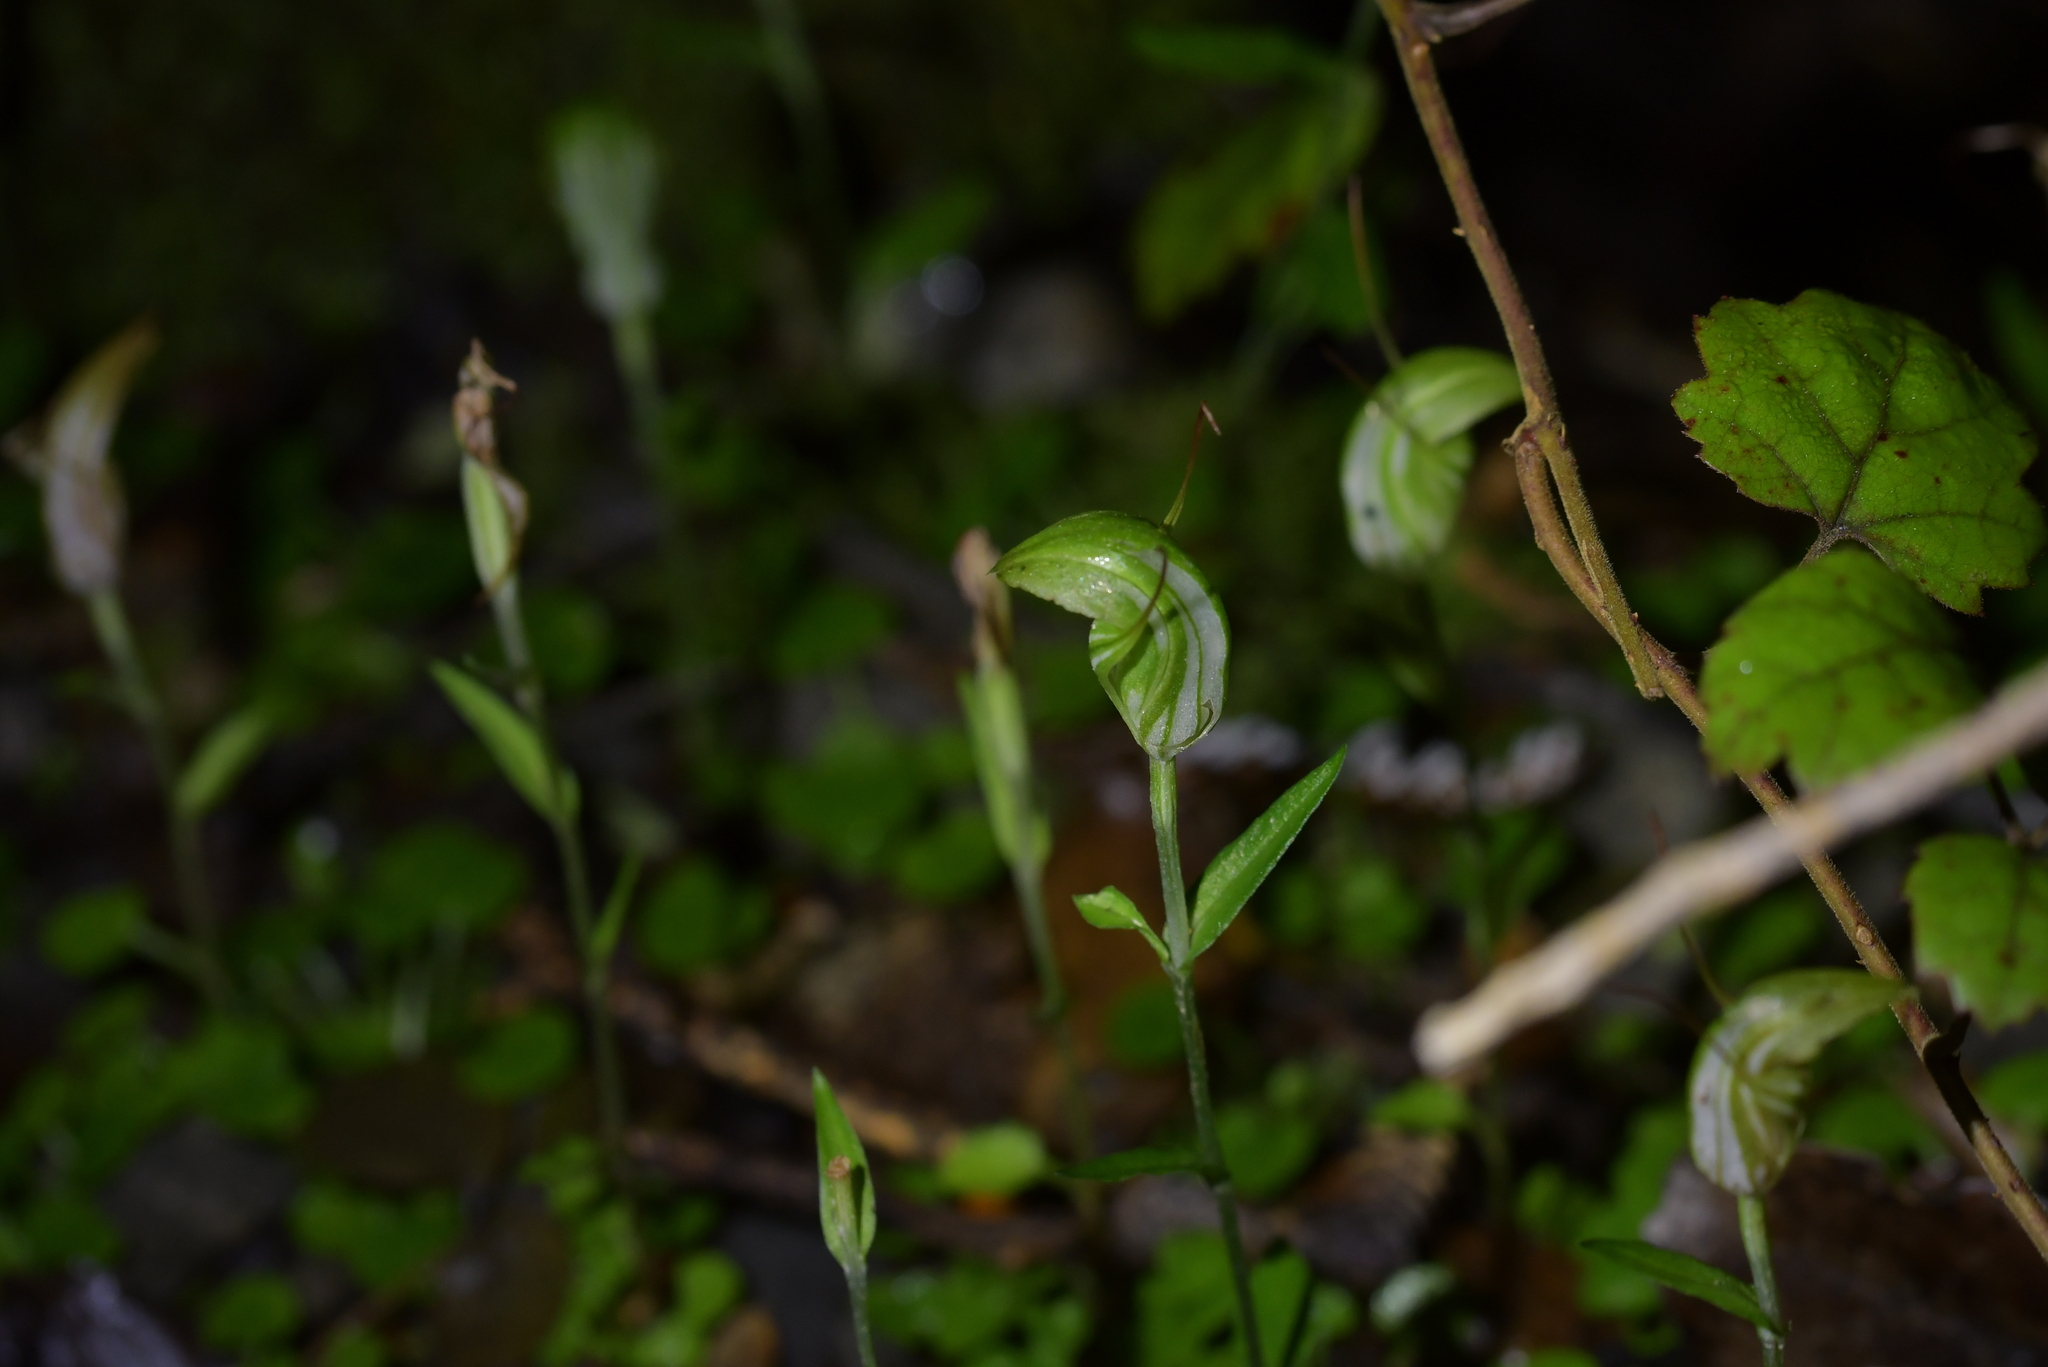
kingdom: Plantae
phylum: Tracheophyta
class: Liliopsida
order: Asparagales
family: Orchidaceae
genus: Pterostylis
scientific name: Pterostylis alobula
